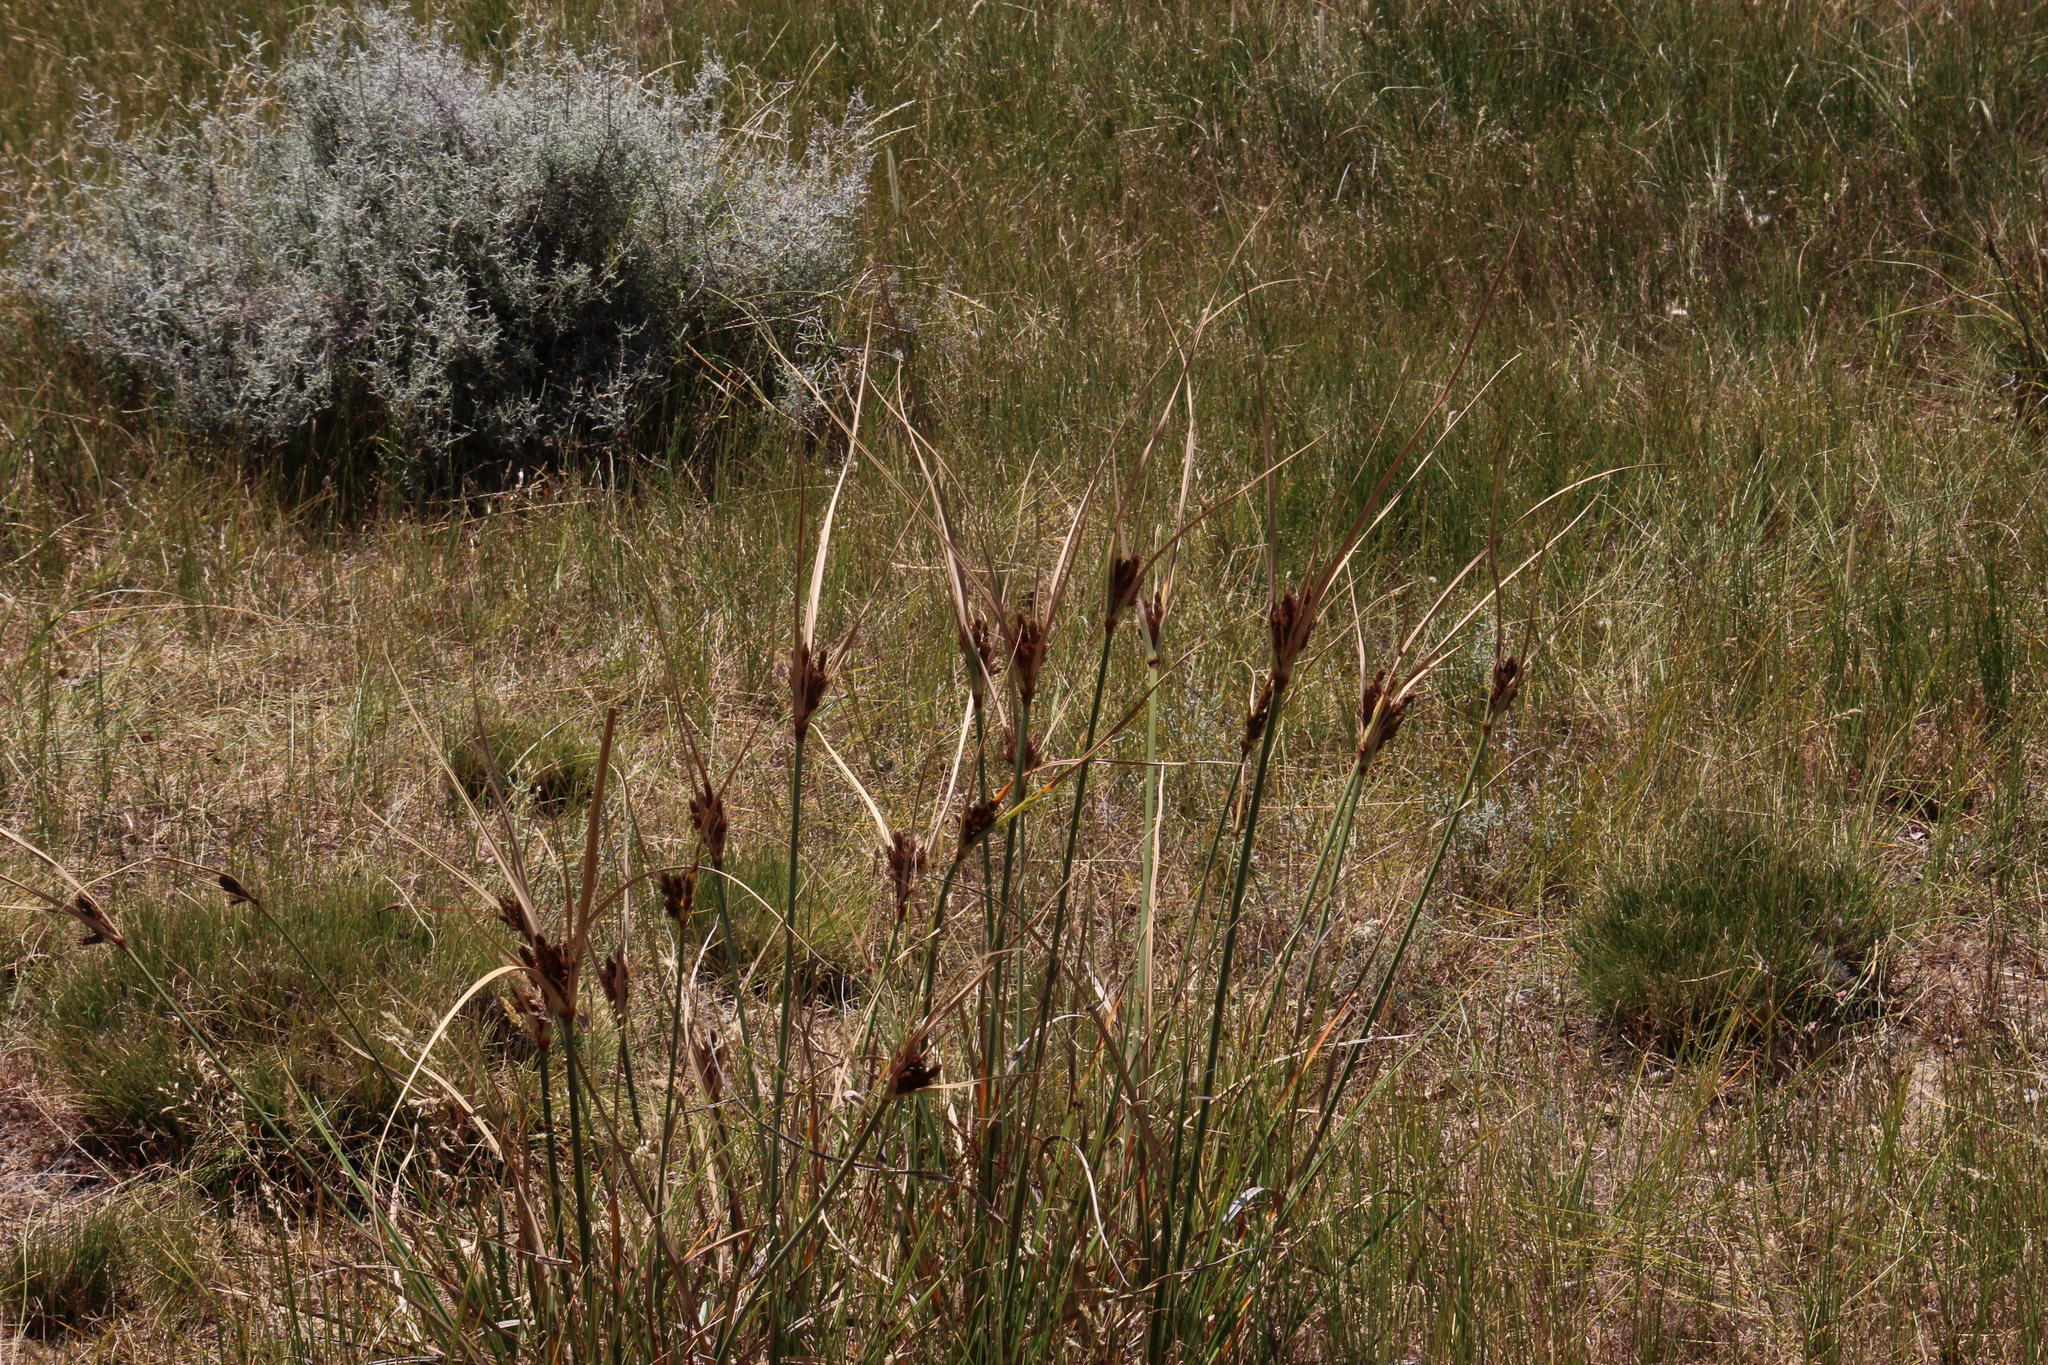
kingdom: Plantae
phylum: Tracheophyta
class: Liliopsida
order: Poales
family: Cyperaceae
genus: Cyperus
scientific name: Cyperus thunbergii
